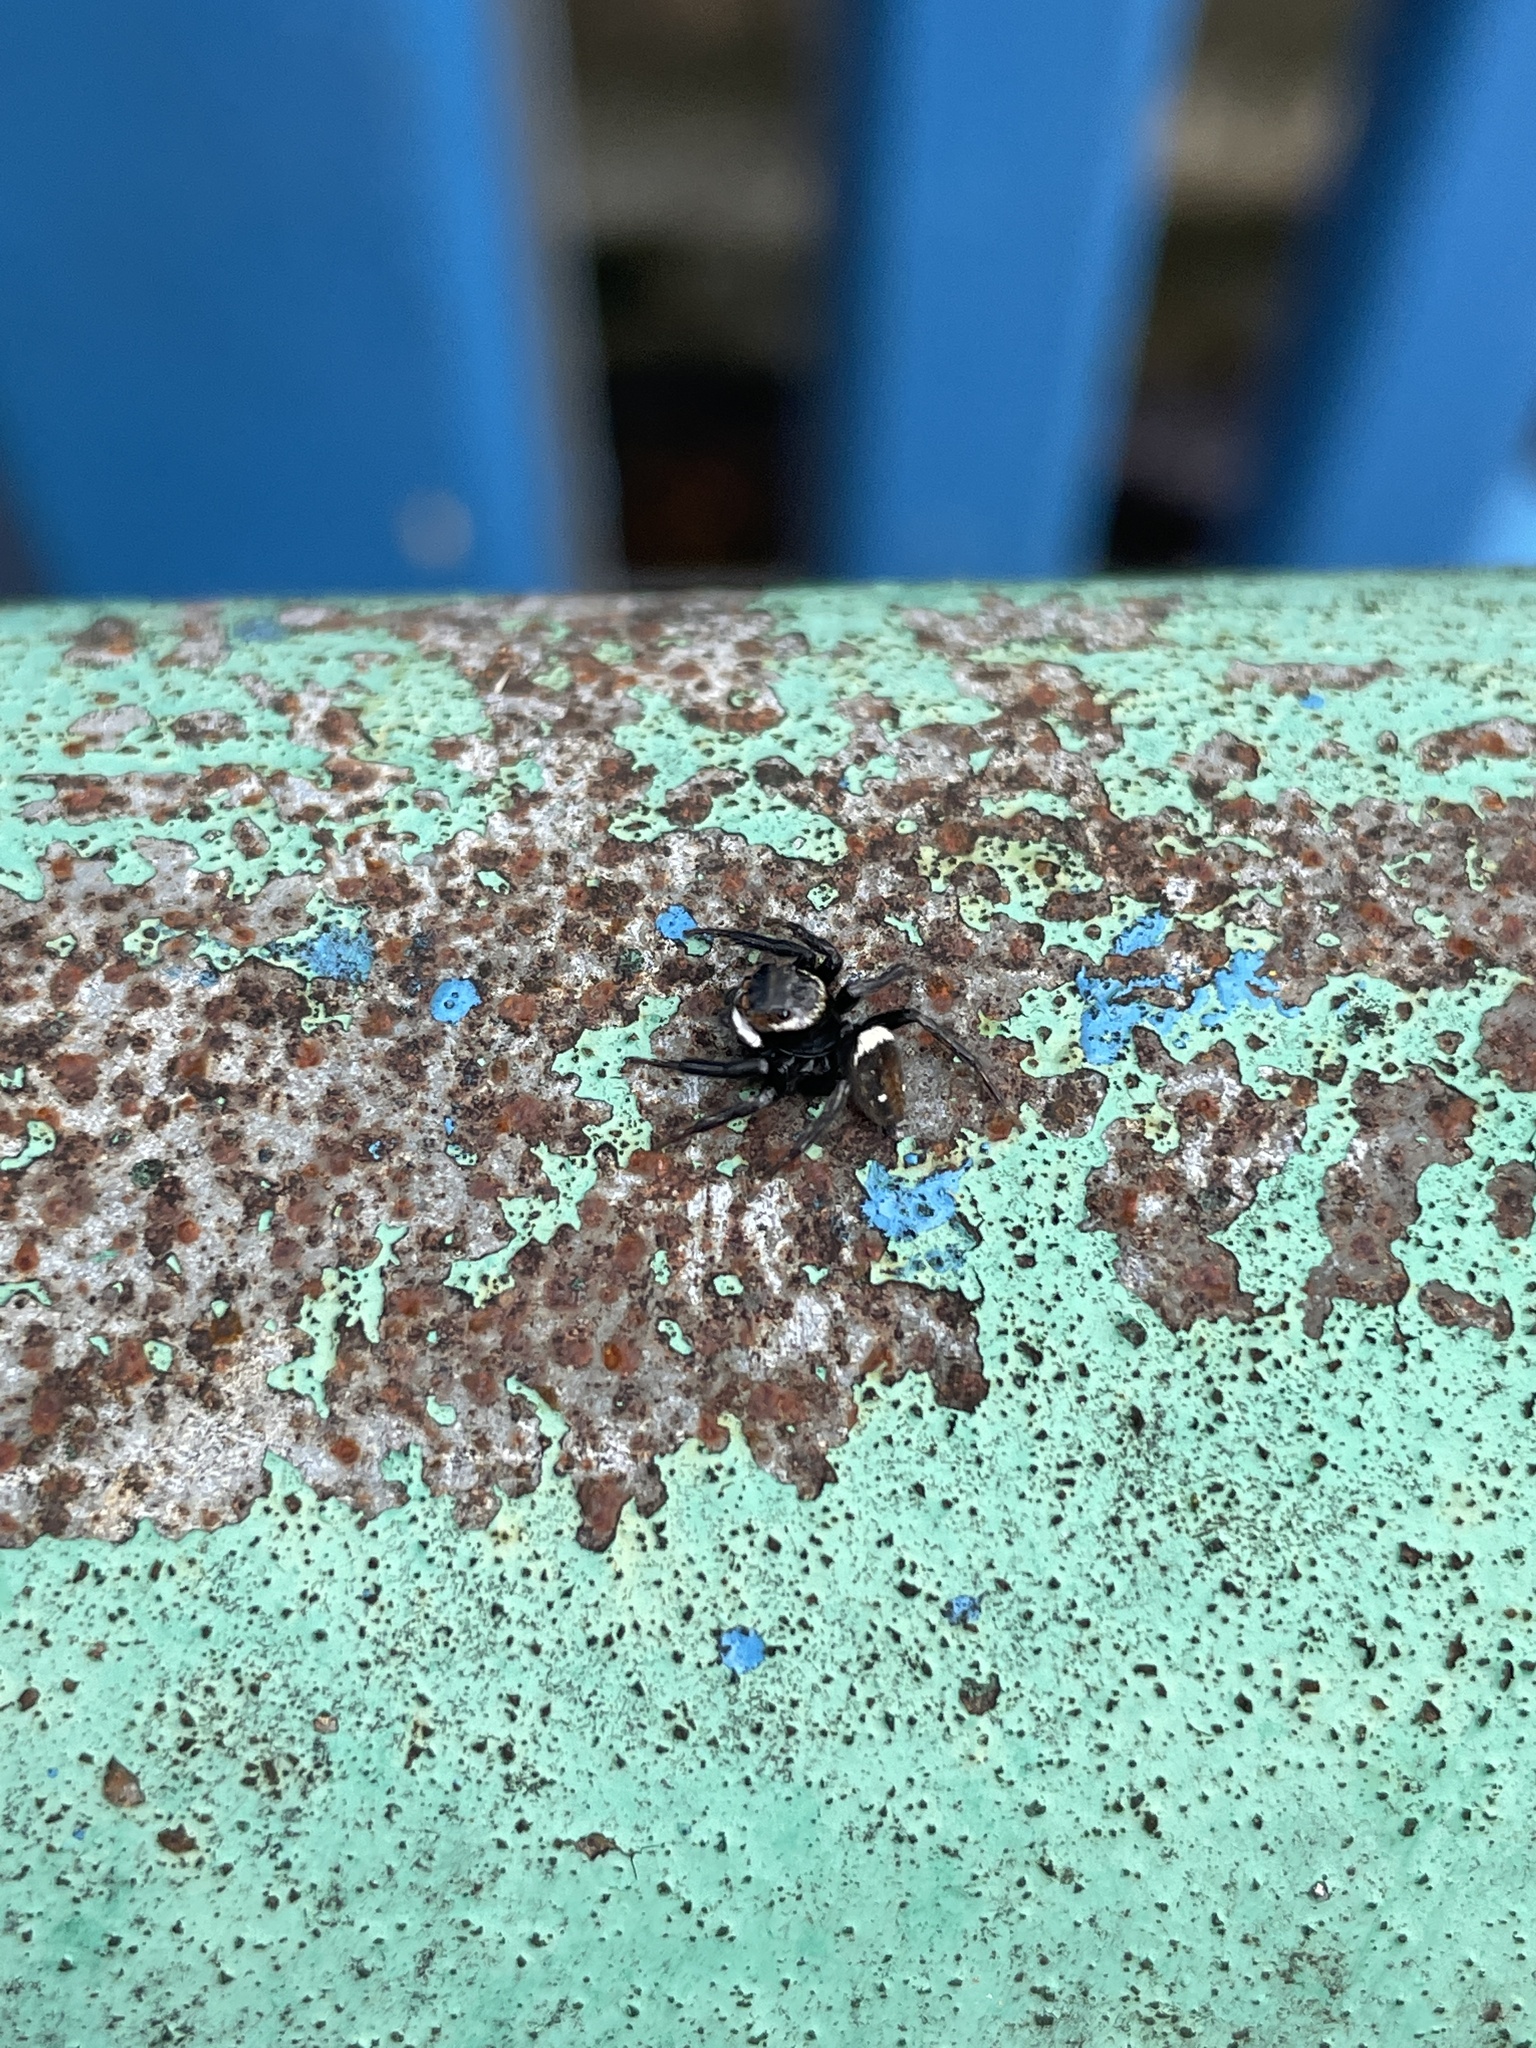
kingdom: Animalia
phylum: Arthropoda
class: Arachnida
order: Araneae
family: Salticidae
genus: Hasarius
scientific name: Hasarius adansoni
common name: Jumping spider
